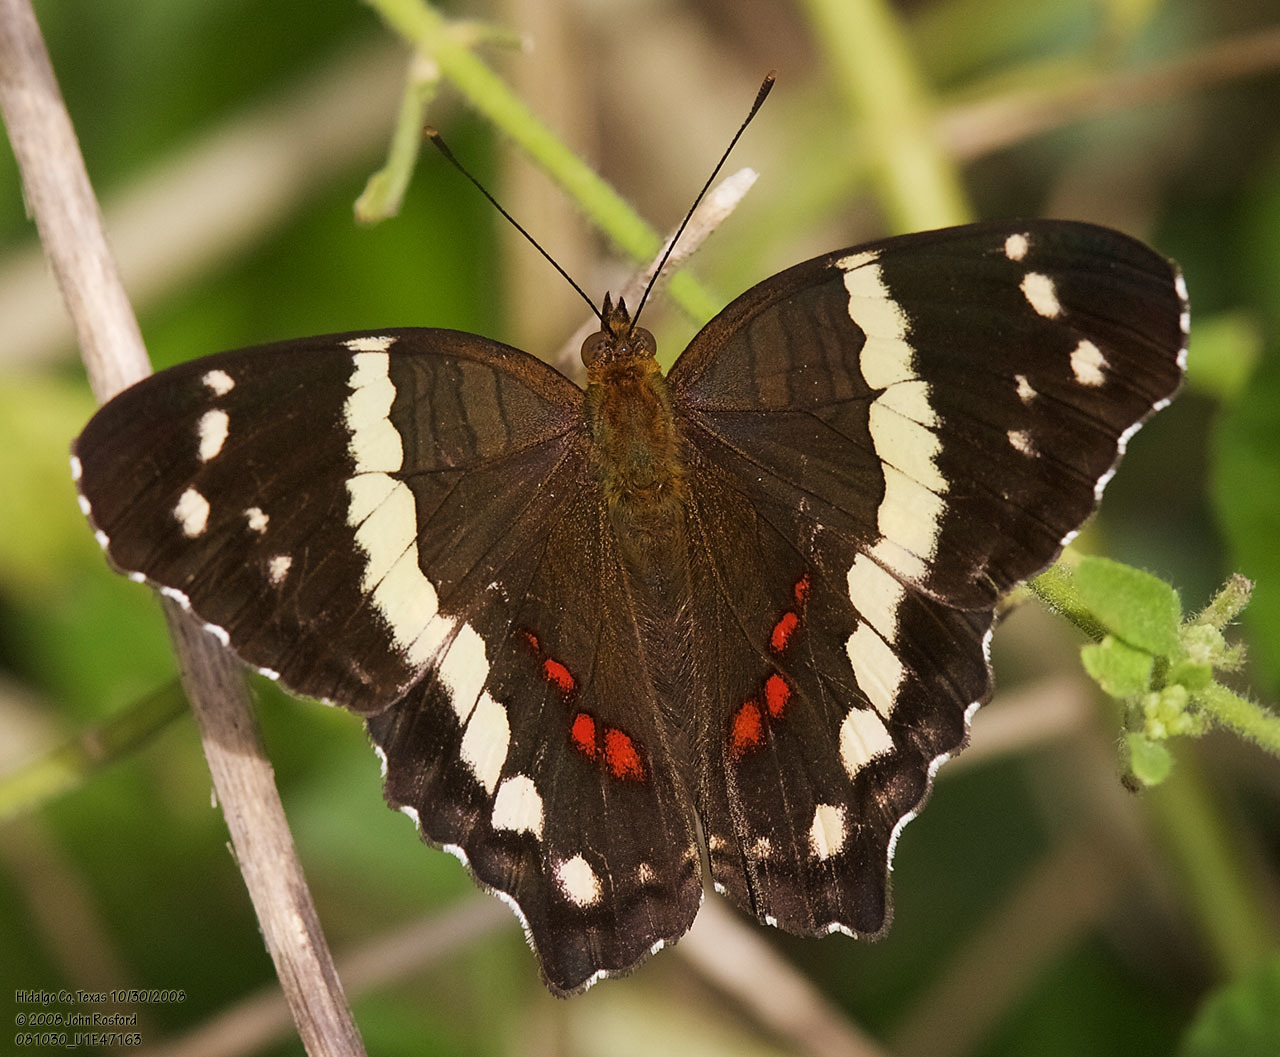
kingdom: Animalia
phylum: Arthropoda
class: Insecta
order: Lepidoptera
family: Nymphalidae
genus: Anartia
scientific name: Anartia fatima
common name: Banded peacock
